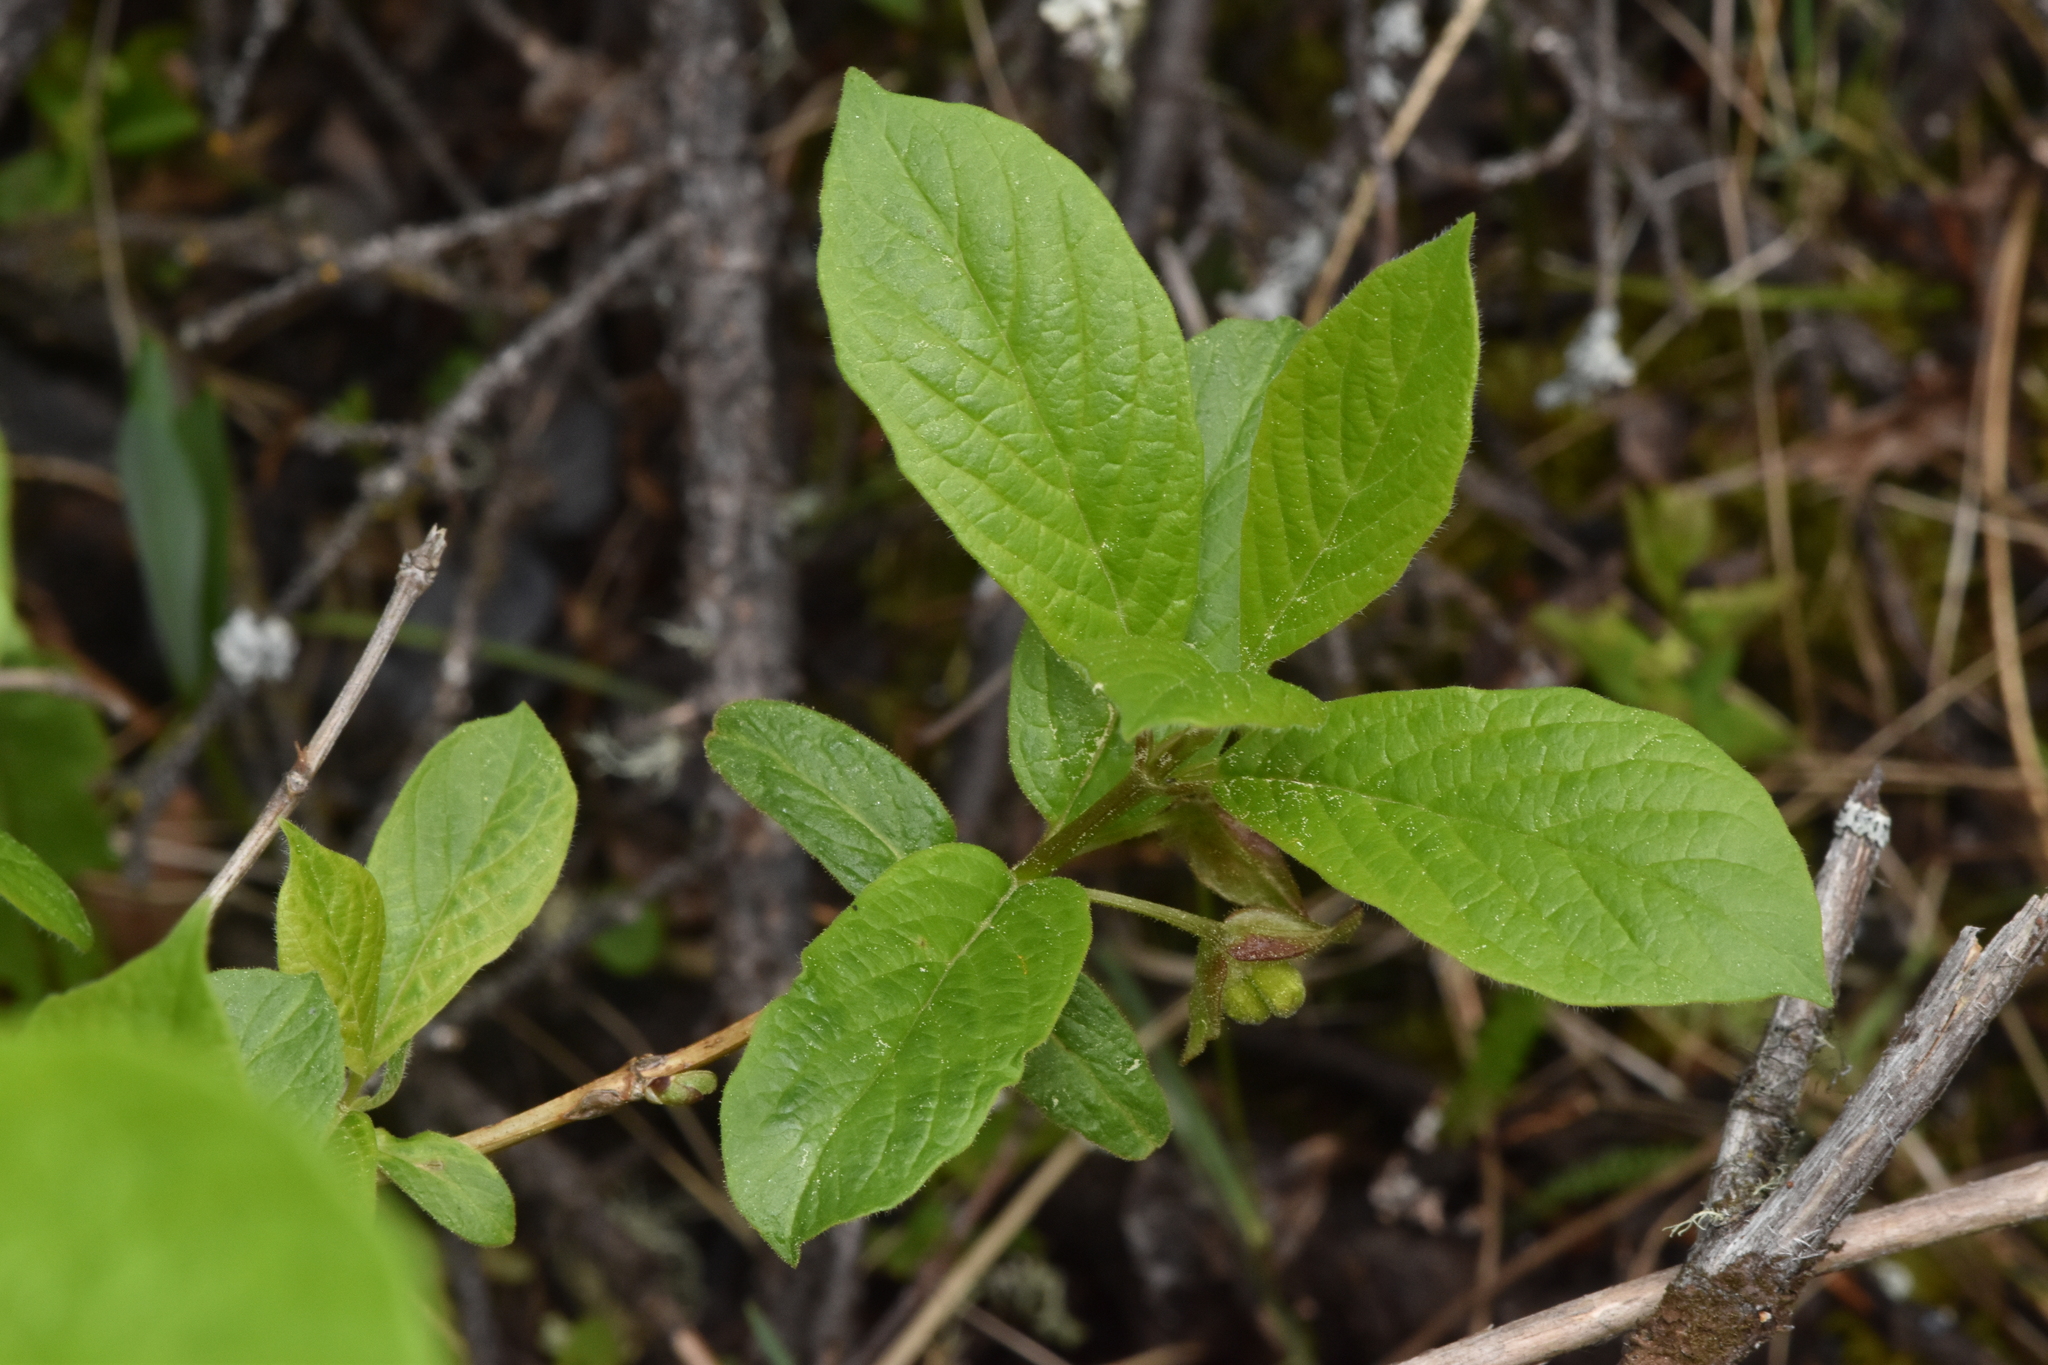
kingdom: Plantae
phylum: Tracheophyta
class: Magnoliopsida
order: Dipsacales
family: Caprifoliaceae
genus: Lonicera
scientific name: Lonicera involucrata
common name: Californian honeysuckle
